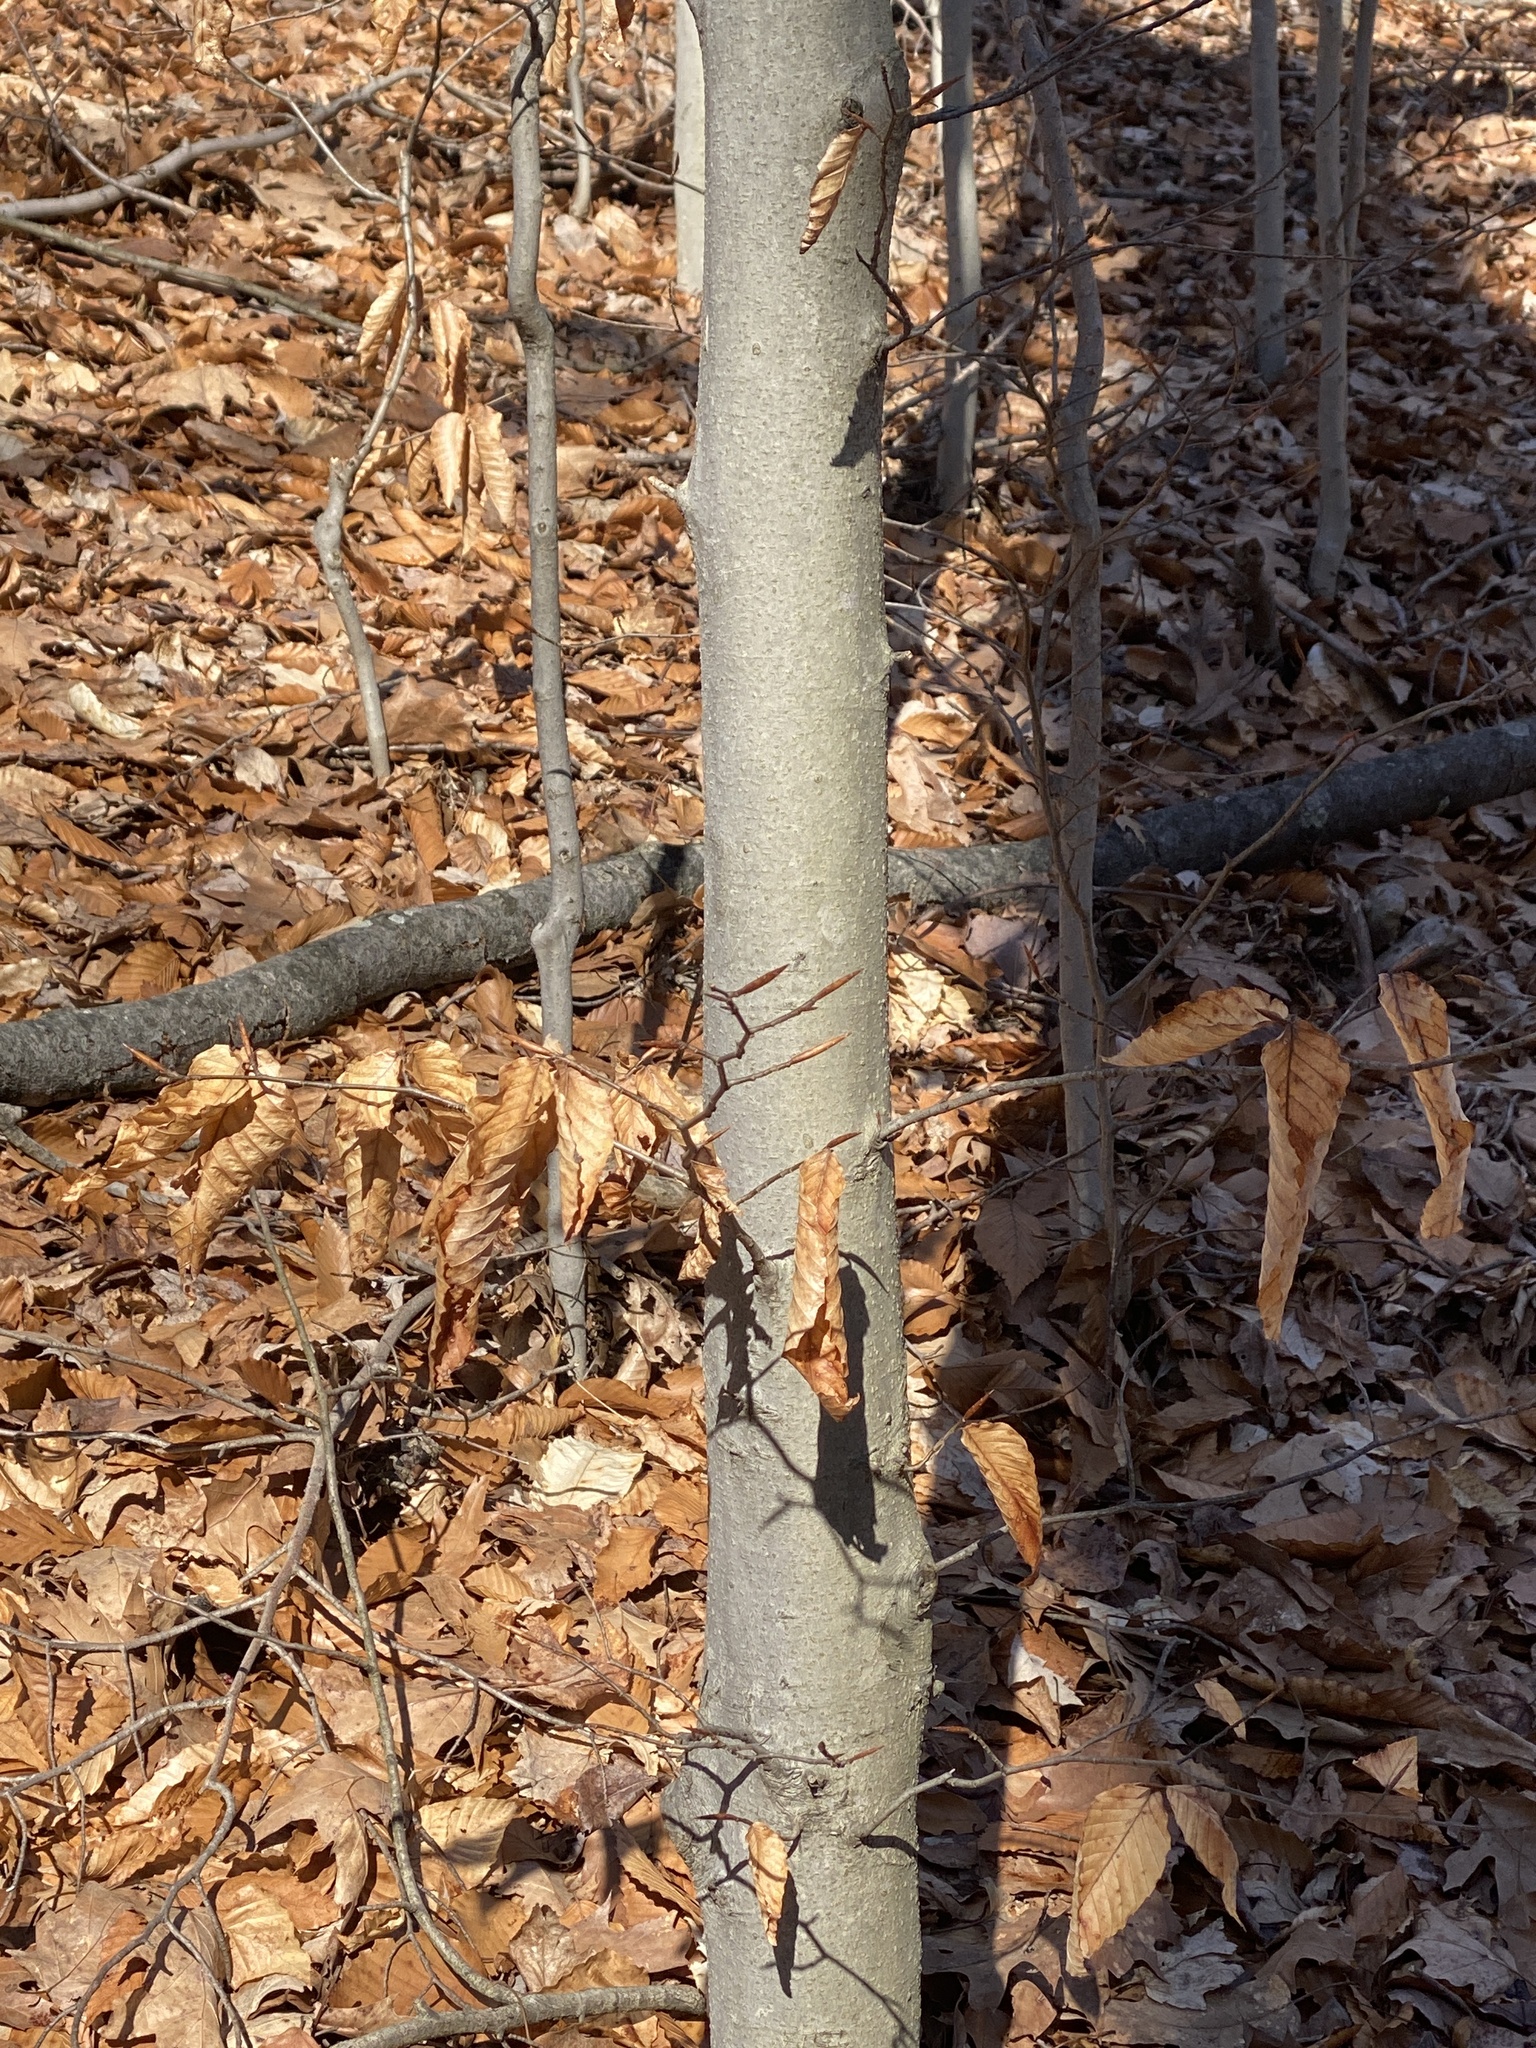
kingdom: Plantae
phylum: Tracheophyta
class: Magnoliopsida
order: Fagales
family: Fagaceae
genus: Fagus
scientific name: Fagus grandifolia
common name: American beech
